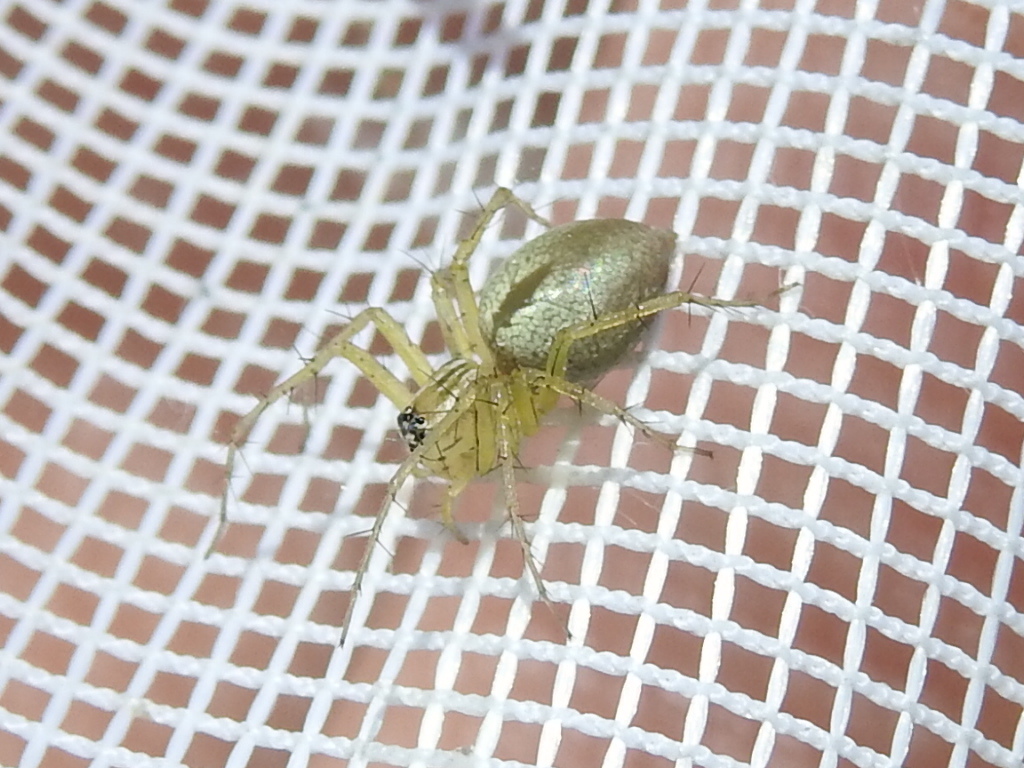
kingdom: Animalia
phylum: Arthropoda
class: Arachnida
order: Araneae
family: Oxyopidae
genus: Oxyopes
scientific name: Oxyopes salticus
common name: Lynx spiders
